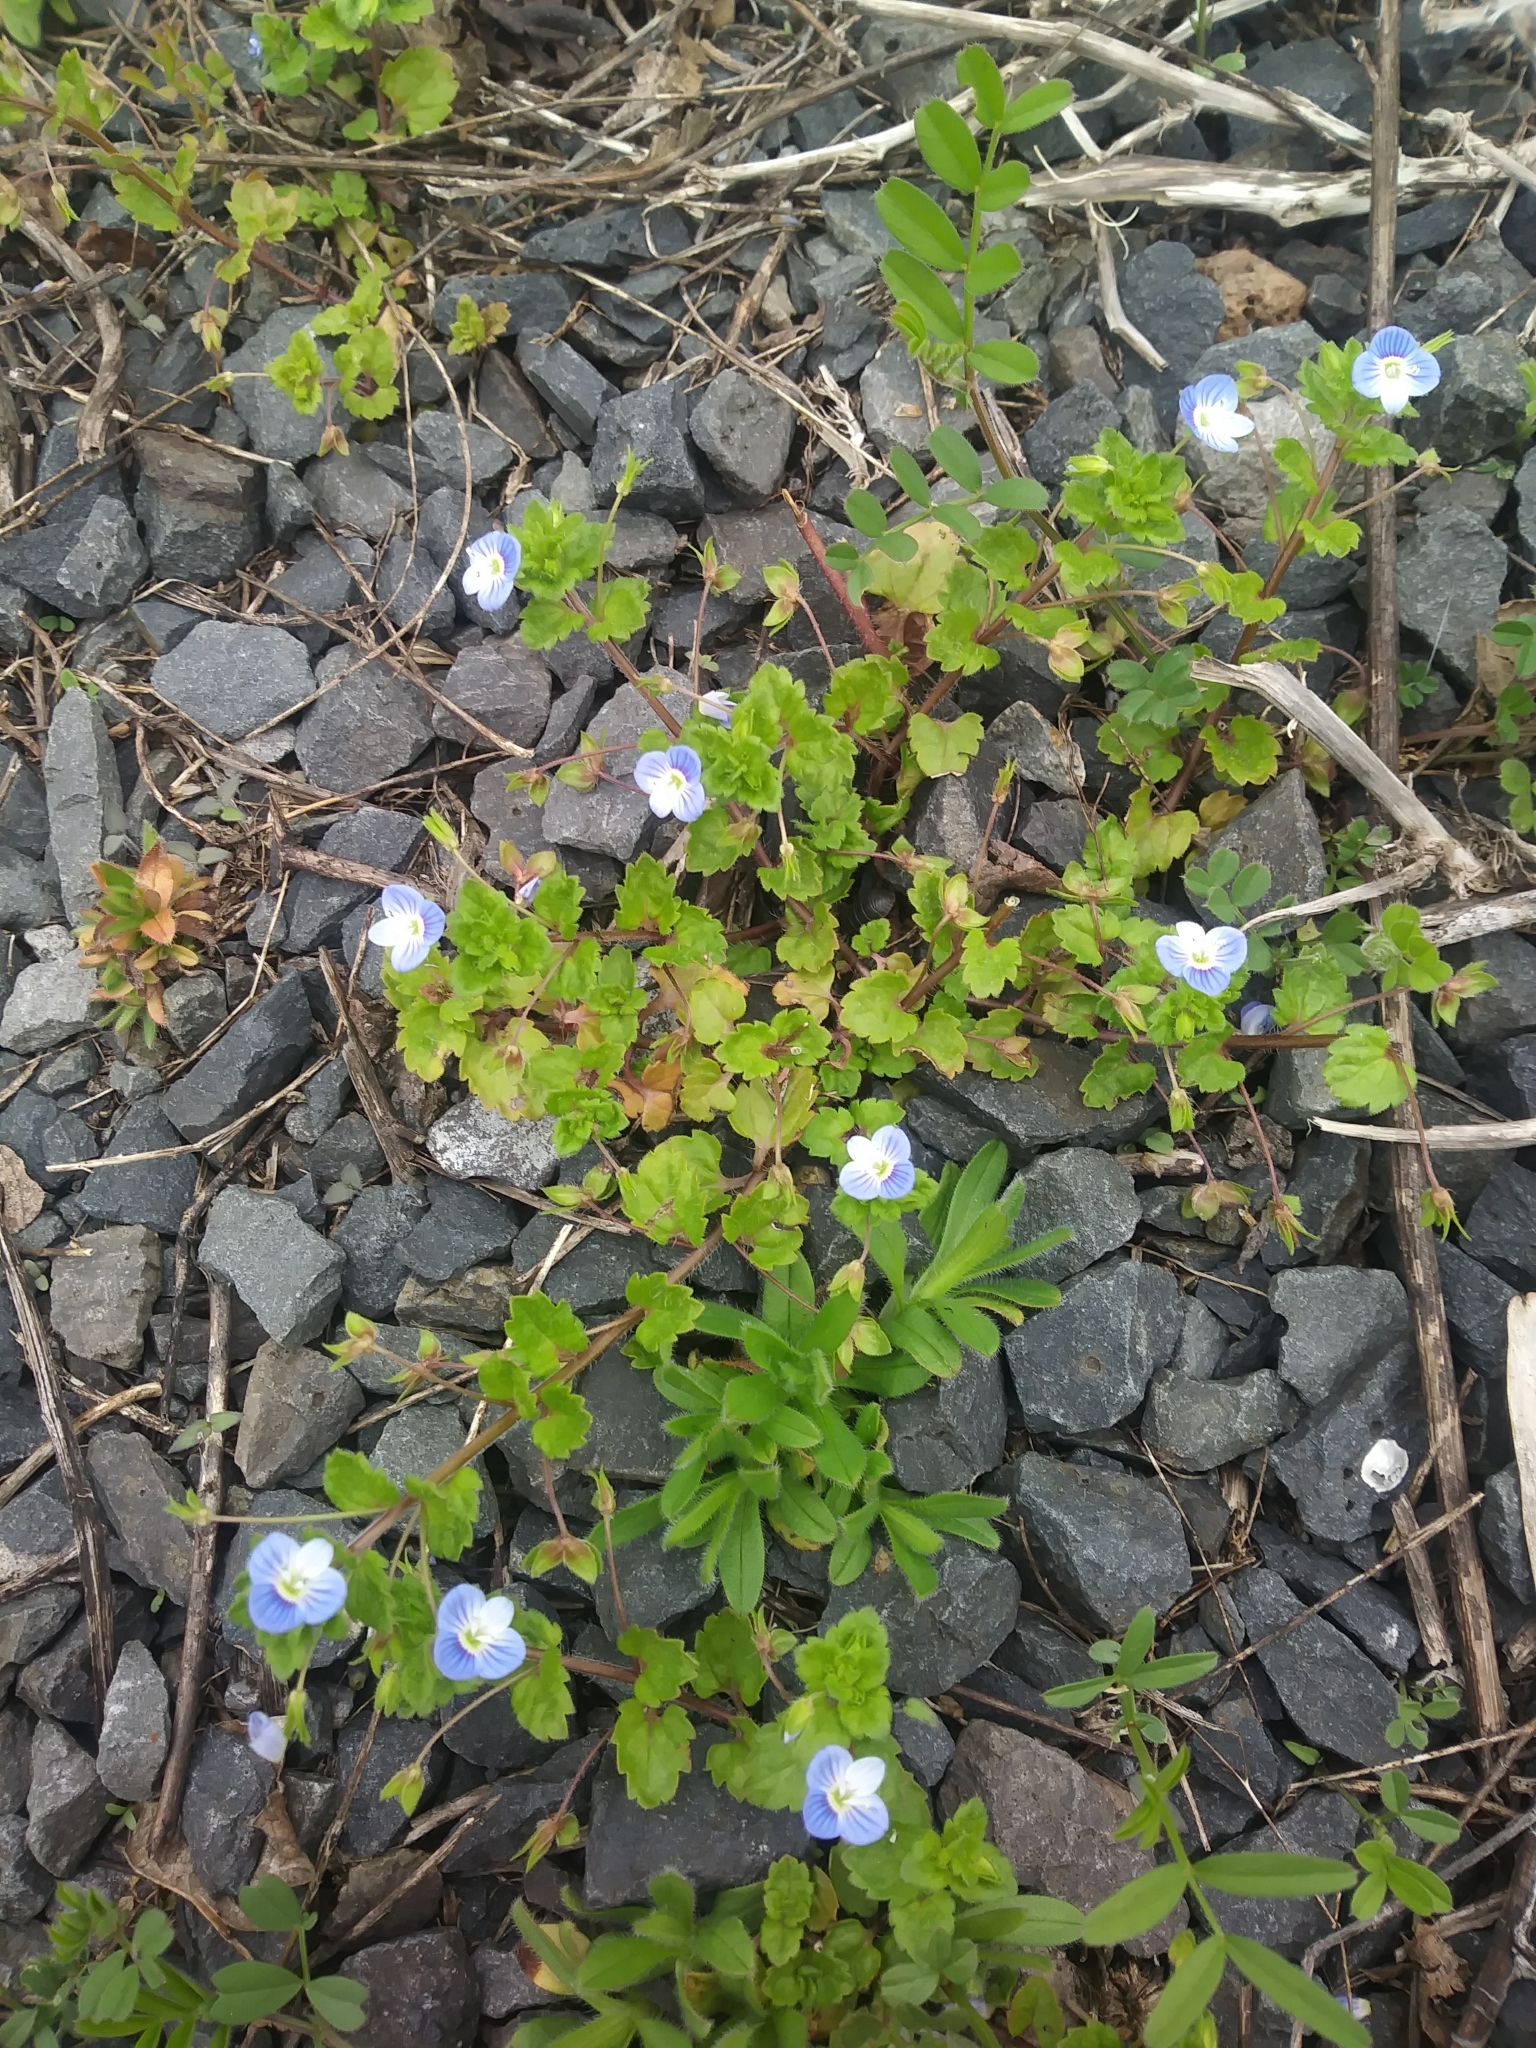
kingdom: Plantae
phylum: Tracheophyta
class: Magnoliopsida
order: Lamiales
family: Plantaginaceae
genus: Veronica
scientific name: Veronica persica
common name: Common field-speedwell
